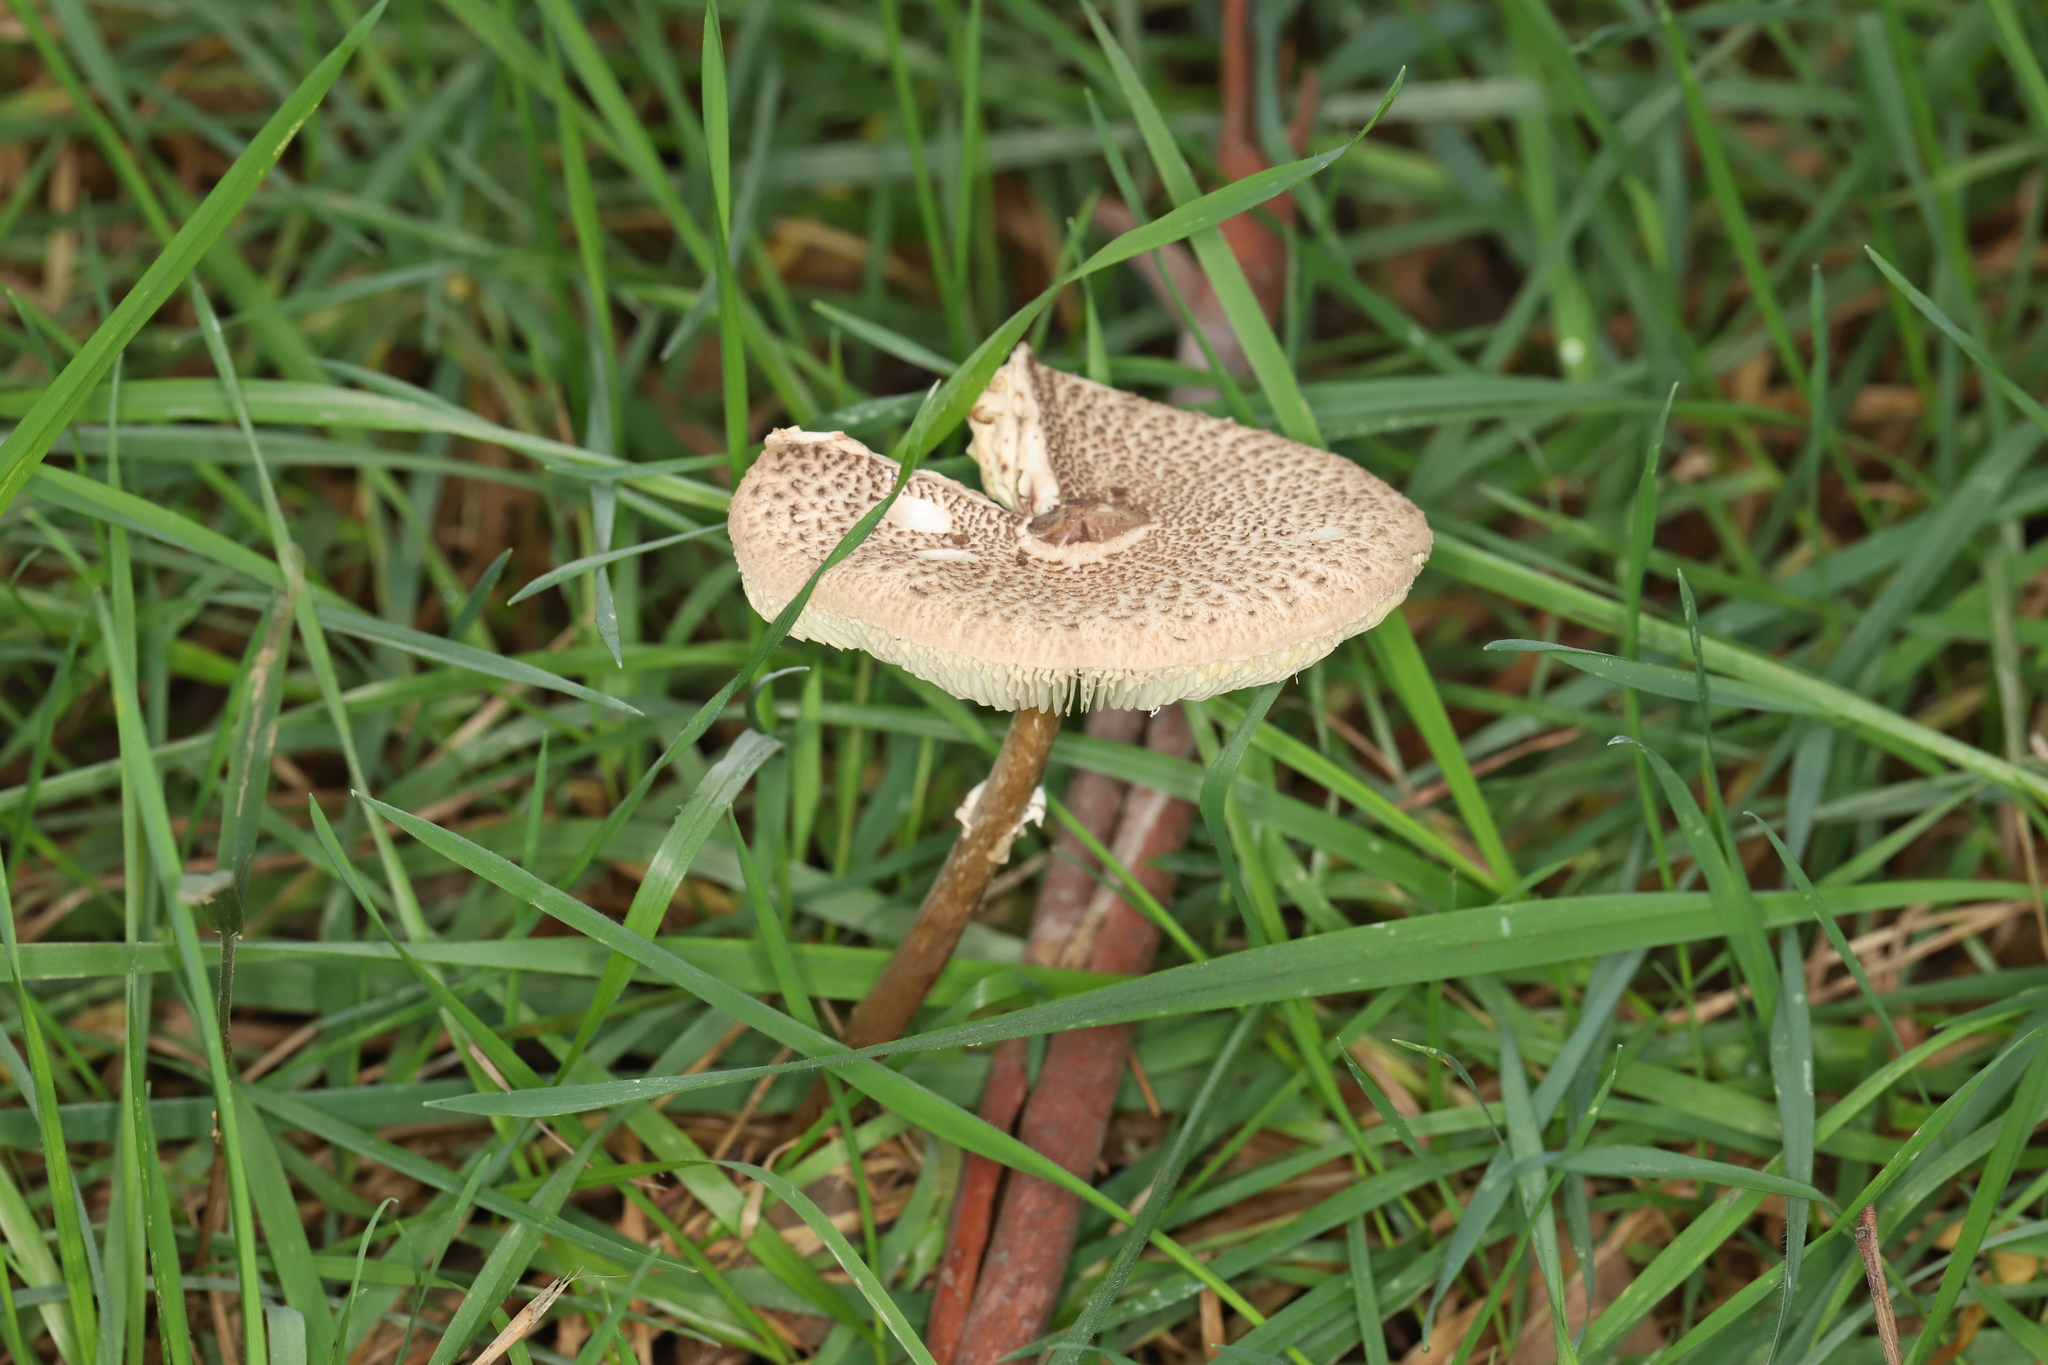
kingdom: Fungi
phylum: Basidiomycota
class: Agaricomycetes
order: Agaricales
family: Agaricaceae
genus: Macrolepiota
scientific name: Macrolepiota clelandii
